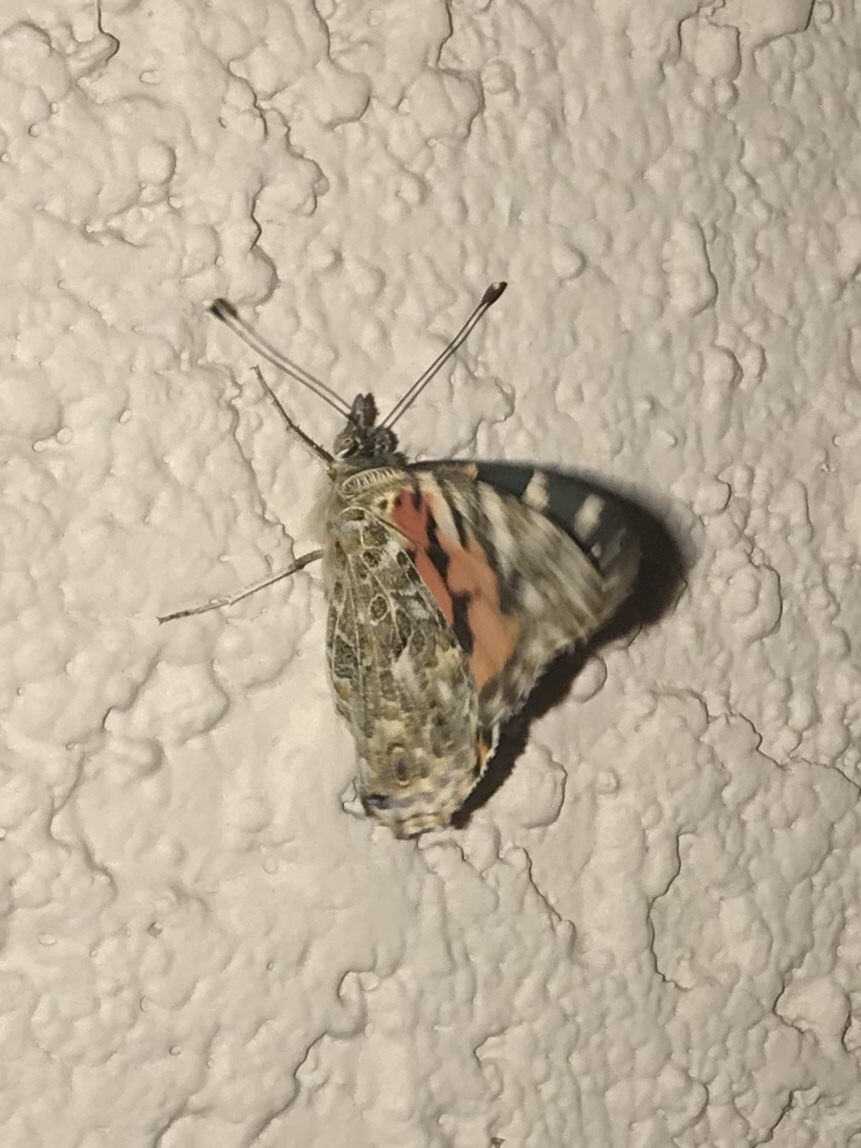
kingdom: Animalia
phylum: Arthropoda
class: Insecta
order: Lepidoptera
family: Nymphalidae
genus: Vanessa
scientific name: Vanessa cardui
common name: Painted lady
